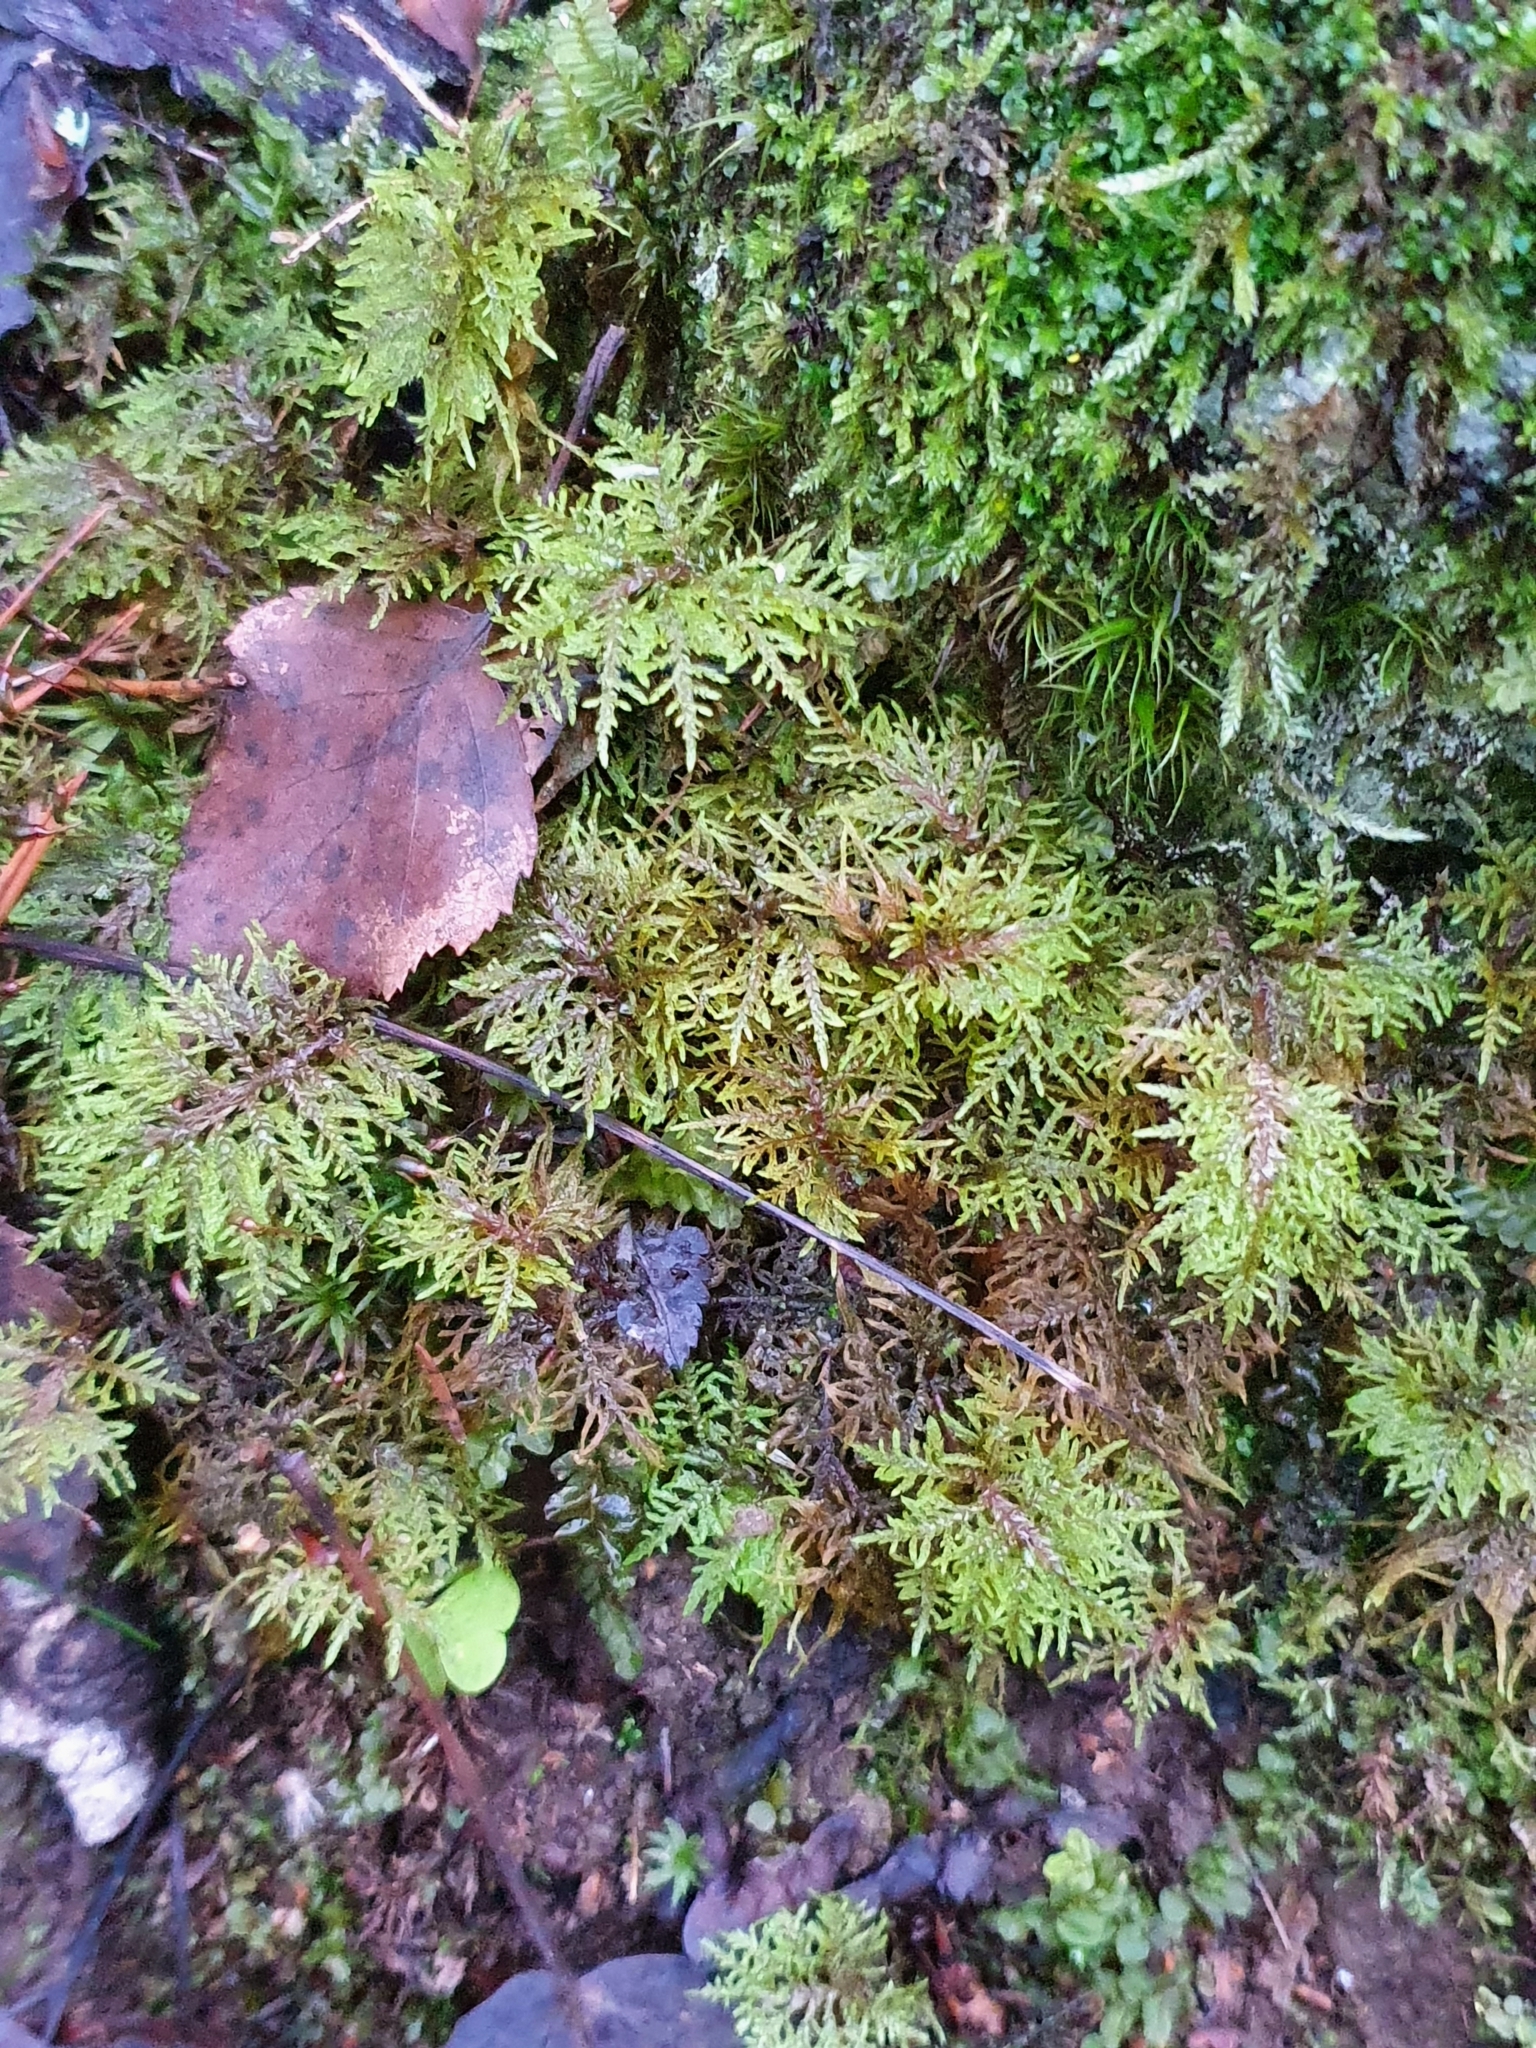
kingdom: Plantae
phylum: Bryophyta
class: Bryopsida
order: Hypnales
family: Hylocomiaceae
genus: Hylocomium
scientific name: Hylocomium splendens
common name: Stairstep moss
